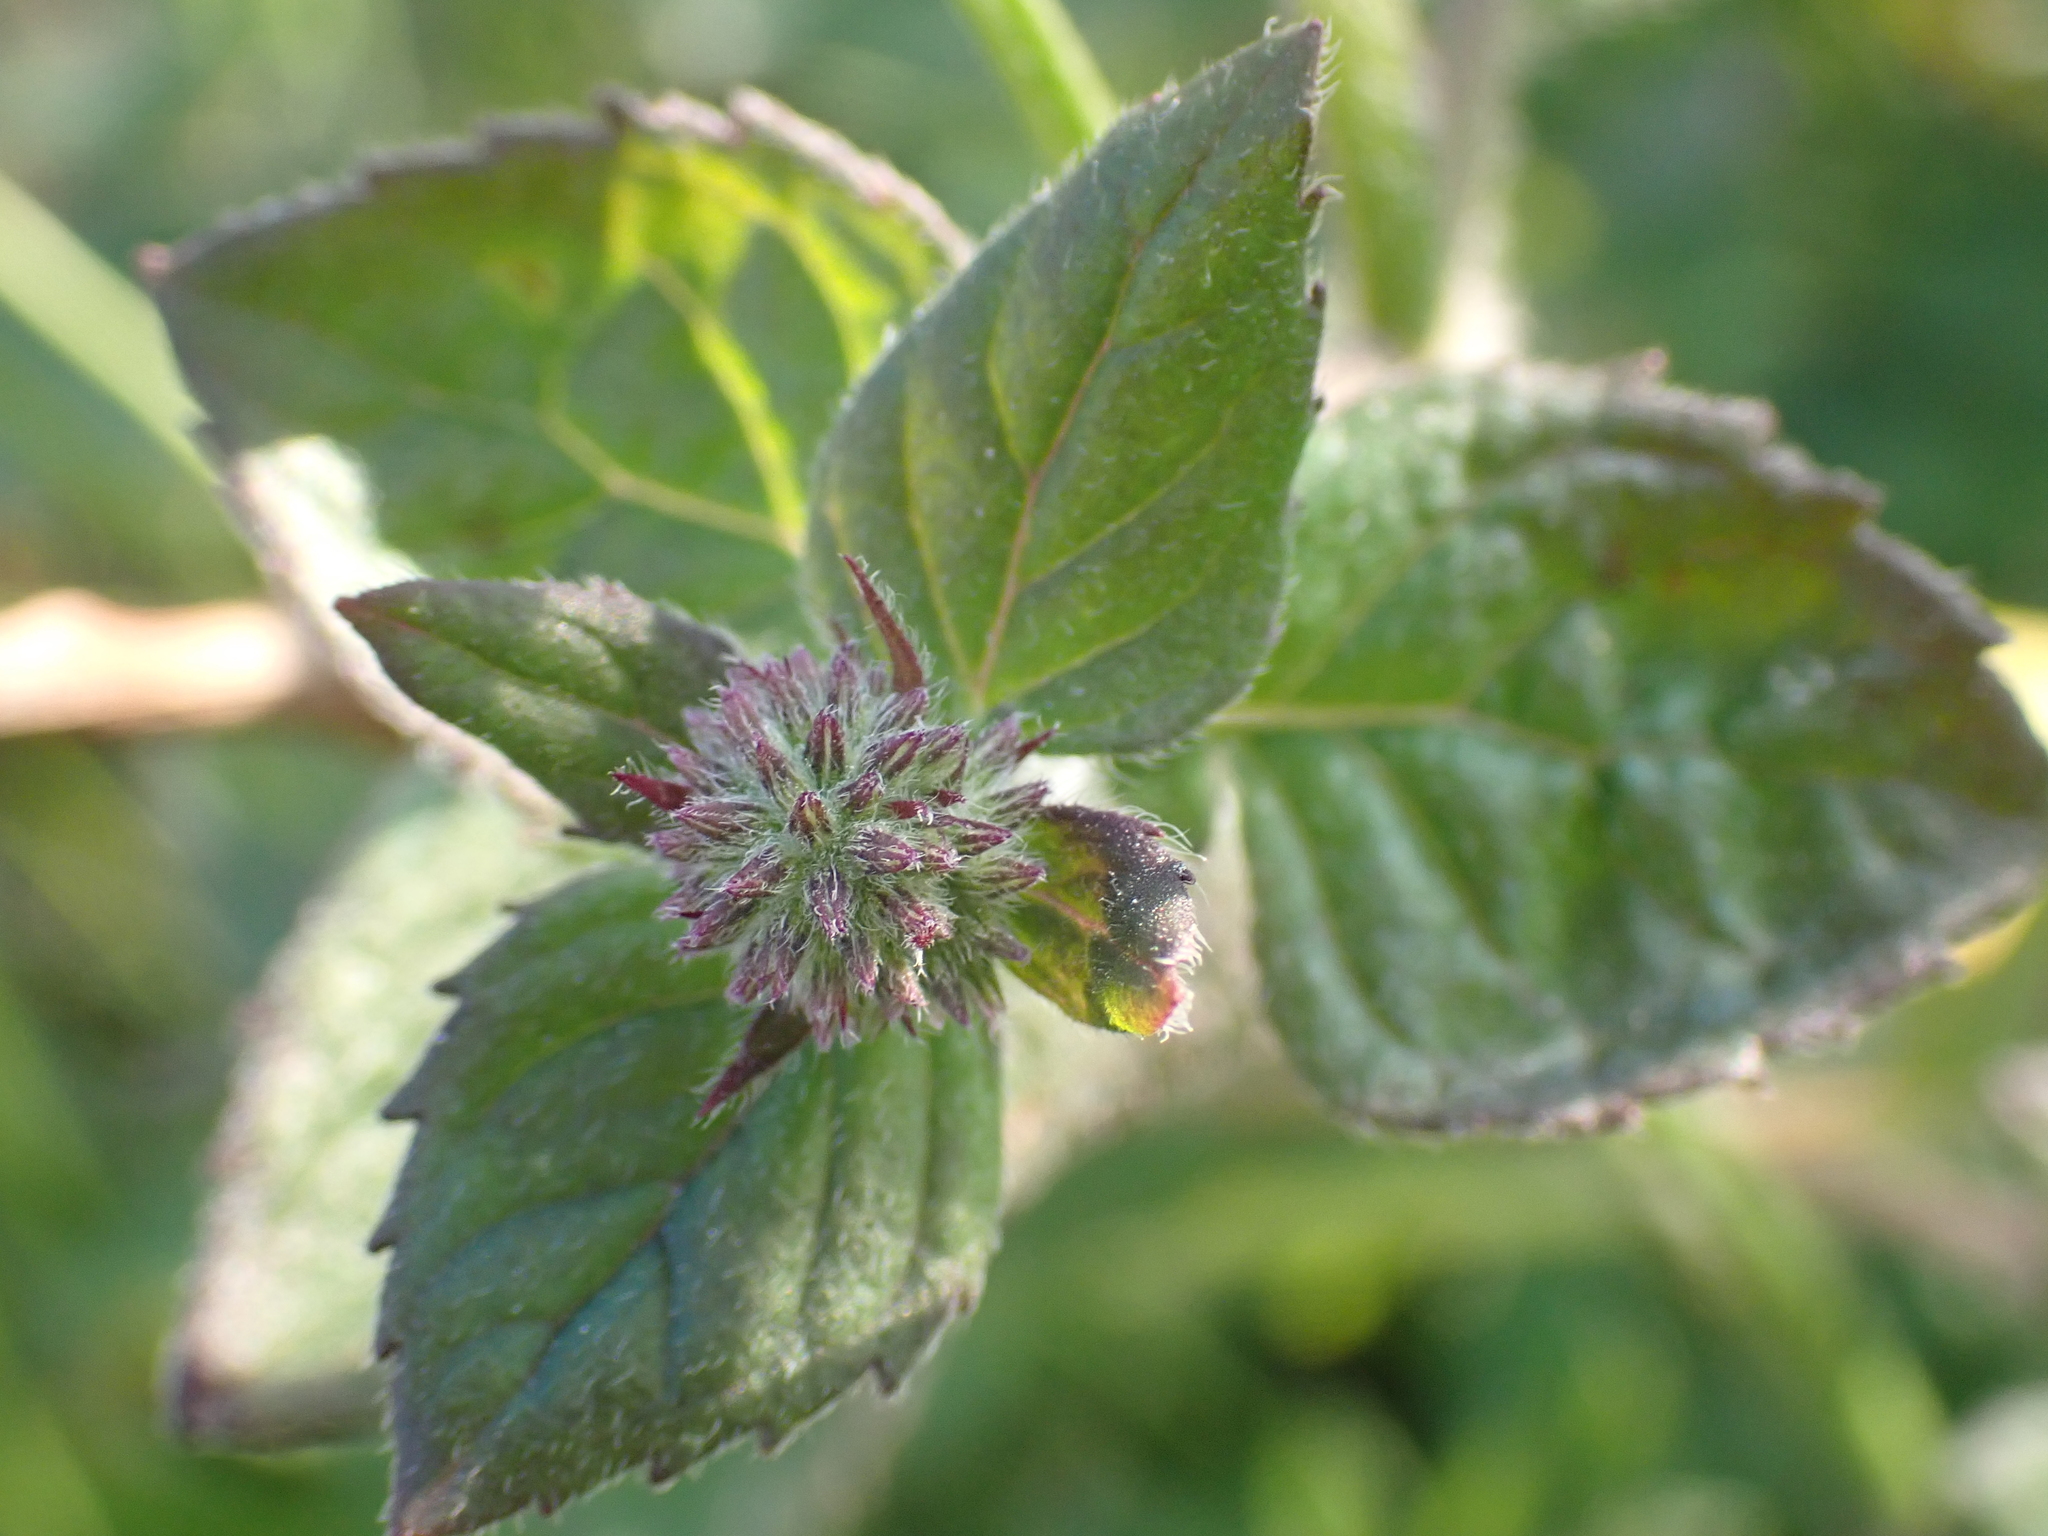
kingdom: Plantae
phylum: Tracheophyta
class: Magnoliopsida
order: Lamiales
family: Lamiaceae
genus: Mentha
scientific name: Mentha aquatica
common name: Water mint
